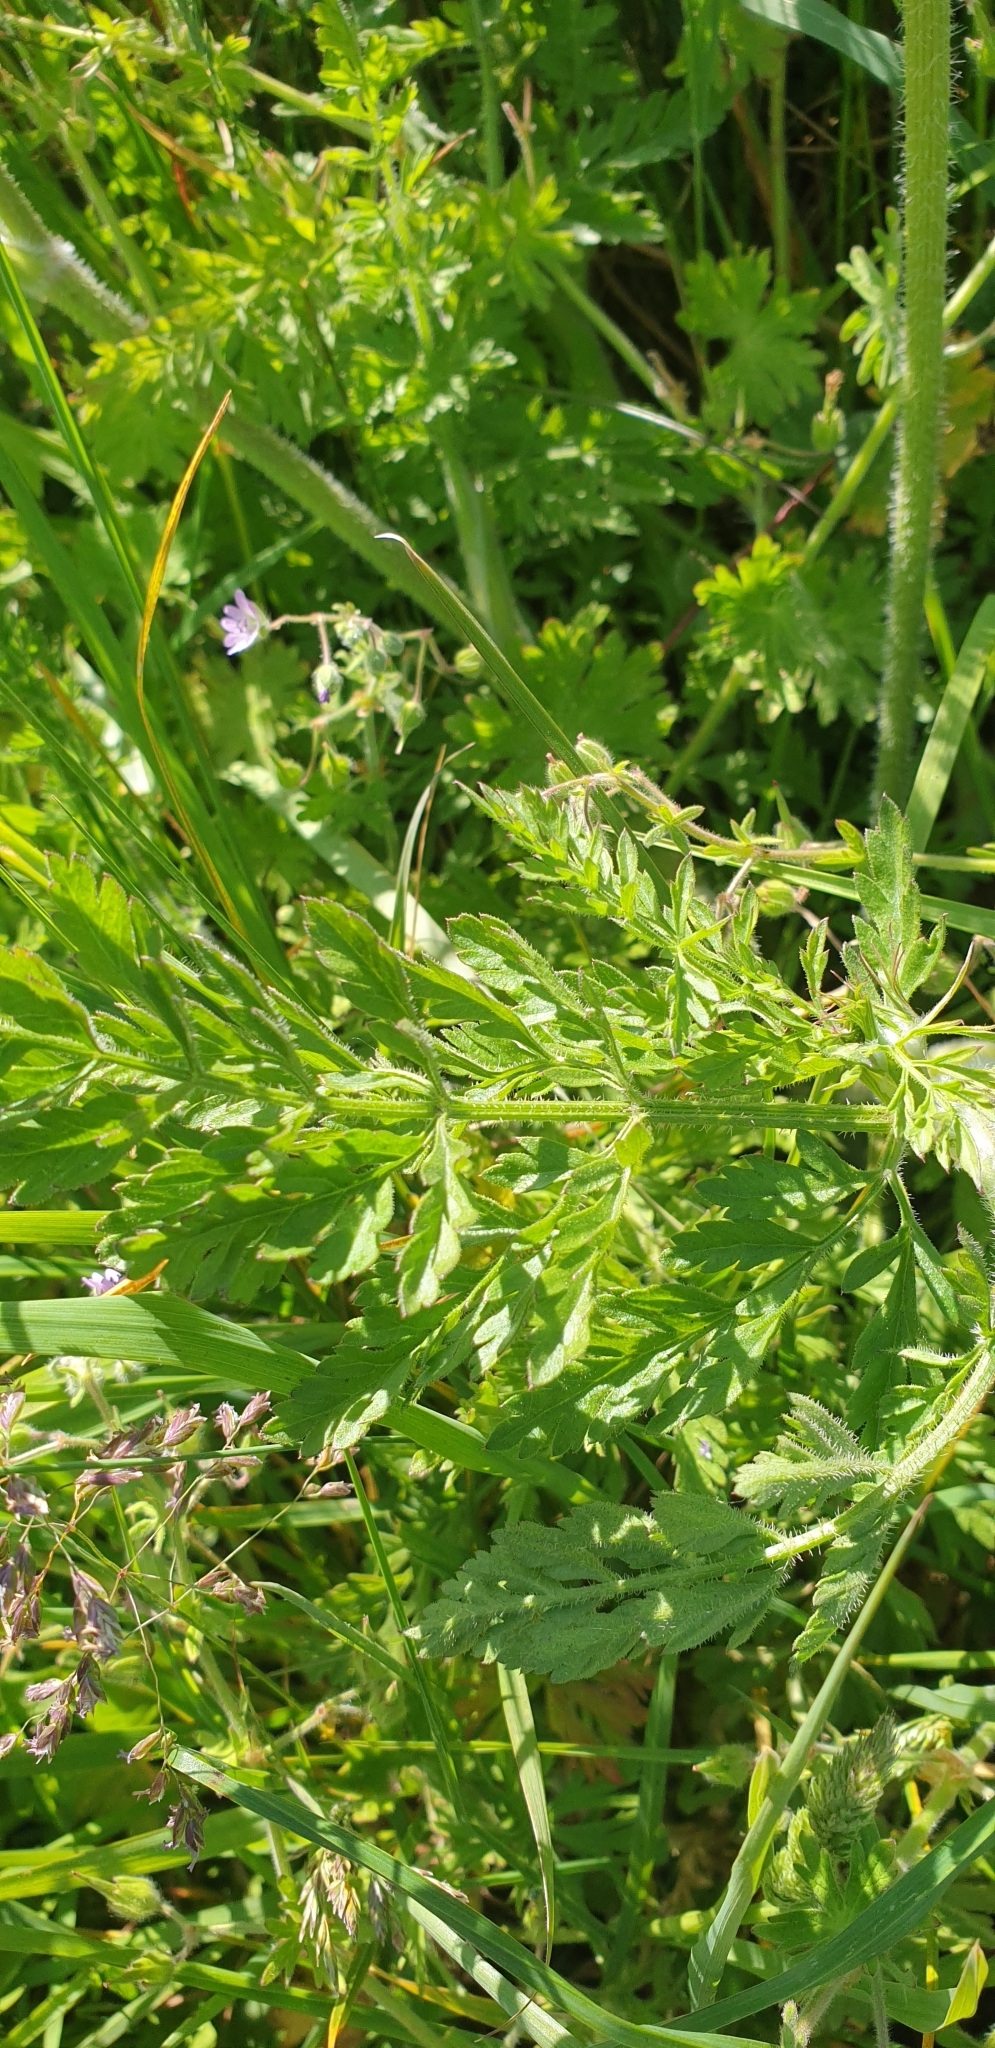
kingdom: Plantae
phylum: Tracheophyta
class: Magnoliopsida
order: Apiales
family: Apiaceae
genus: Daucus
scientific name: Daucus carota
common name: Wild carrot
